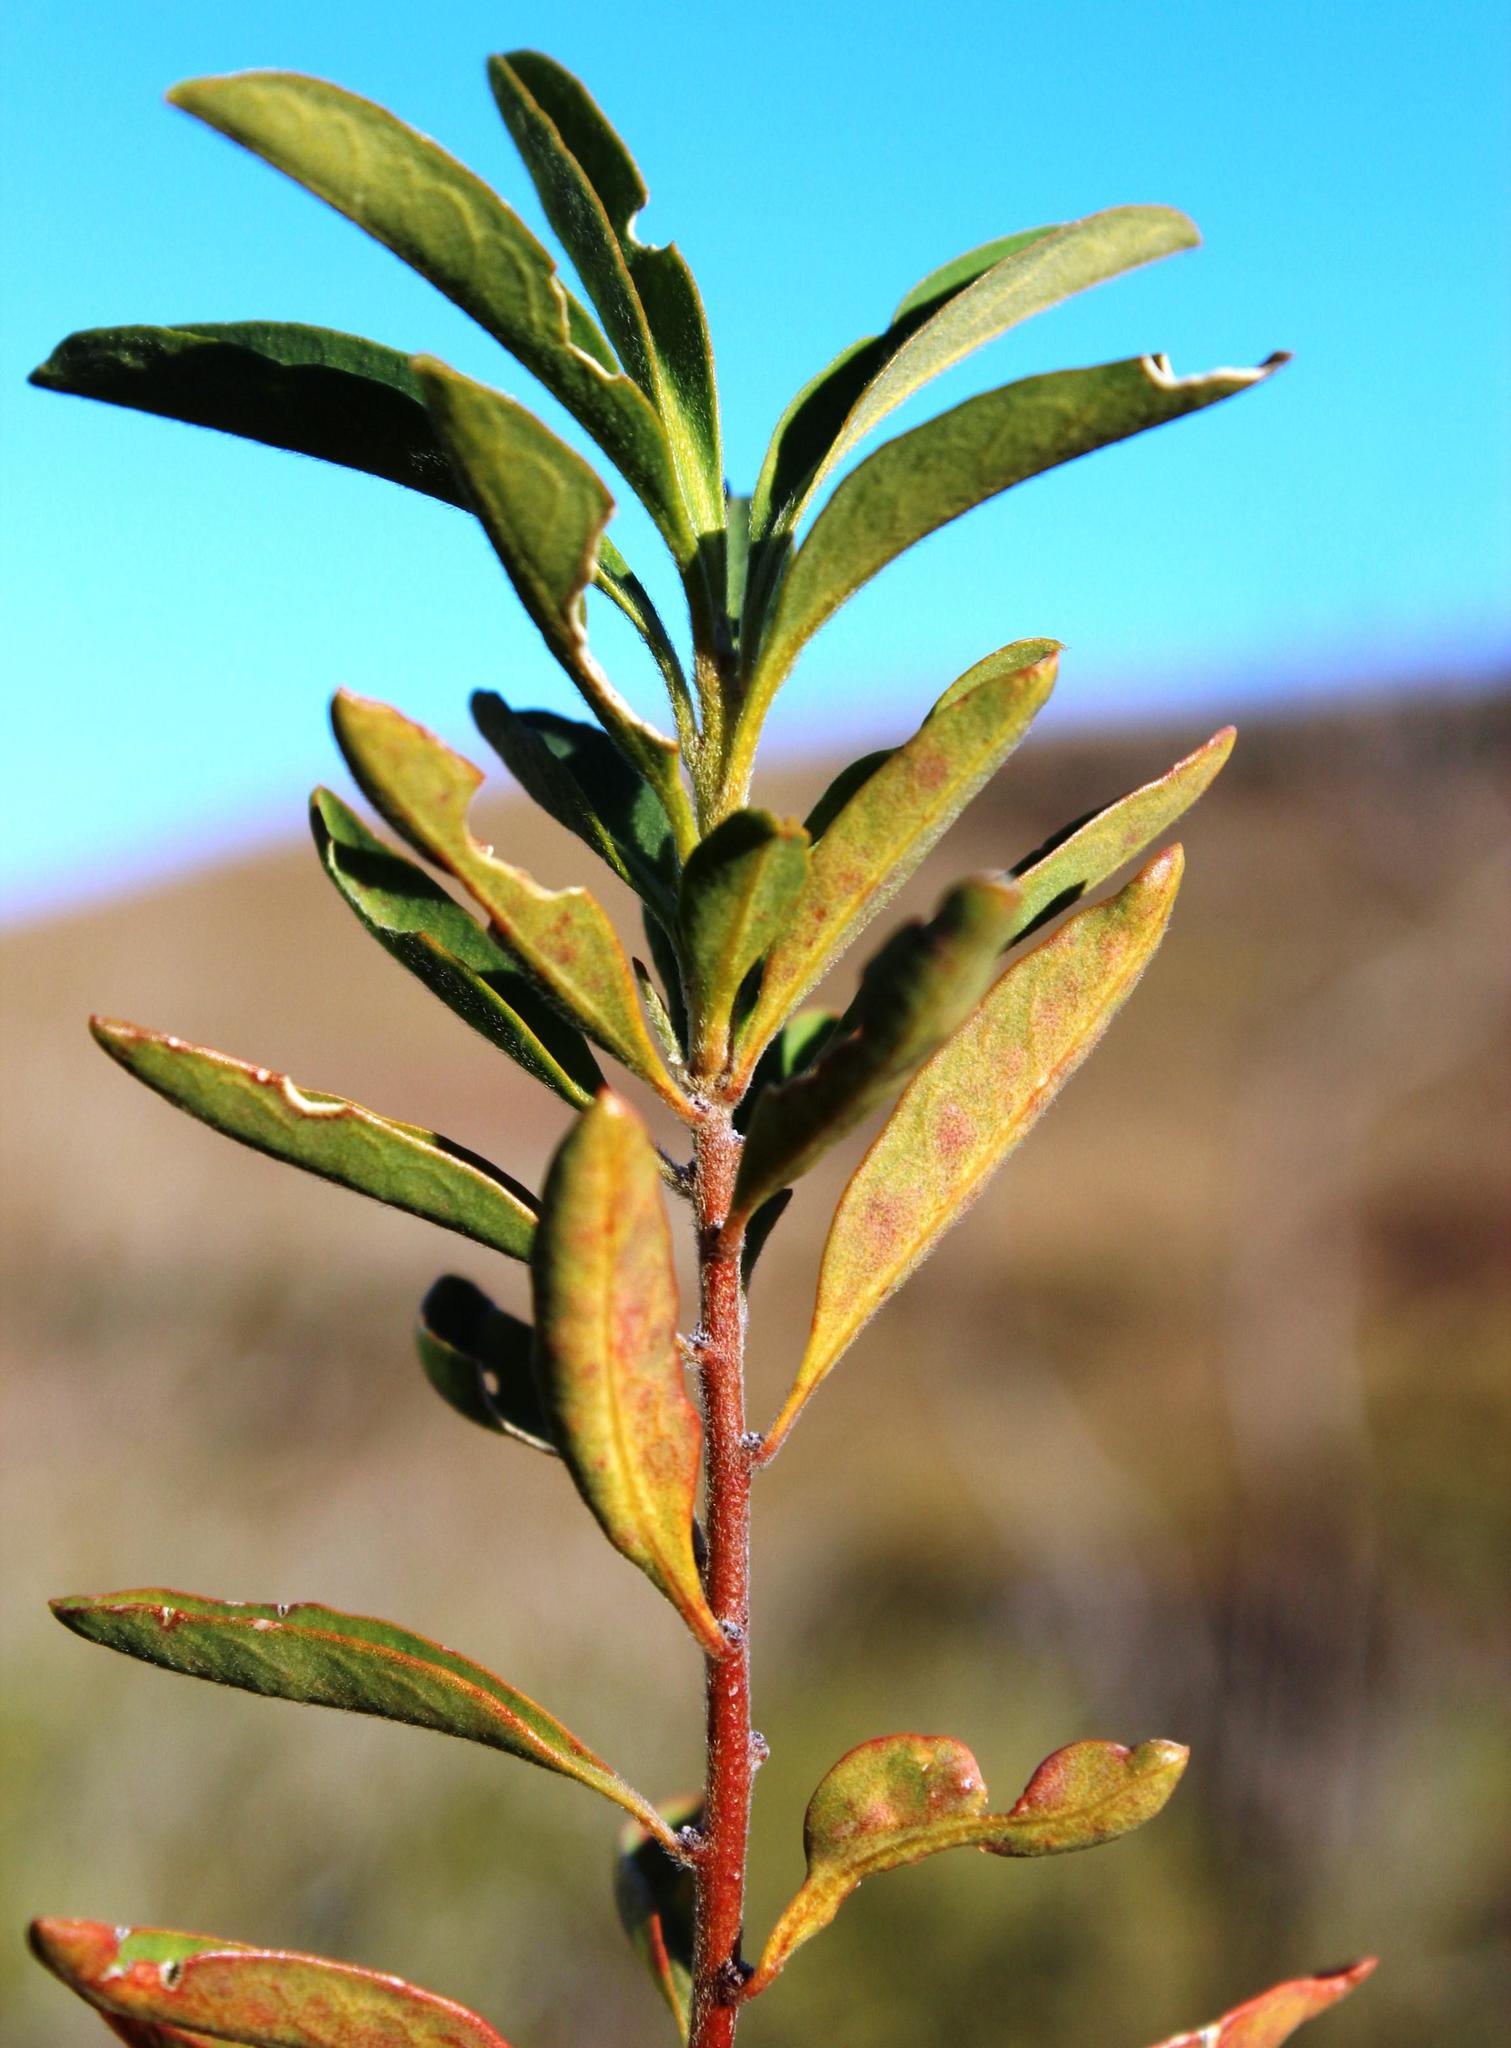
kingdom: Plantae
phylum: Tracheophyta
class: Magnoliopsida
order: Malpighiales
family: Peraceae
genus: Clutia
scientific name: Clutia natalensis
